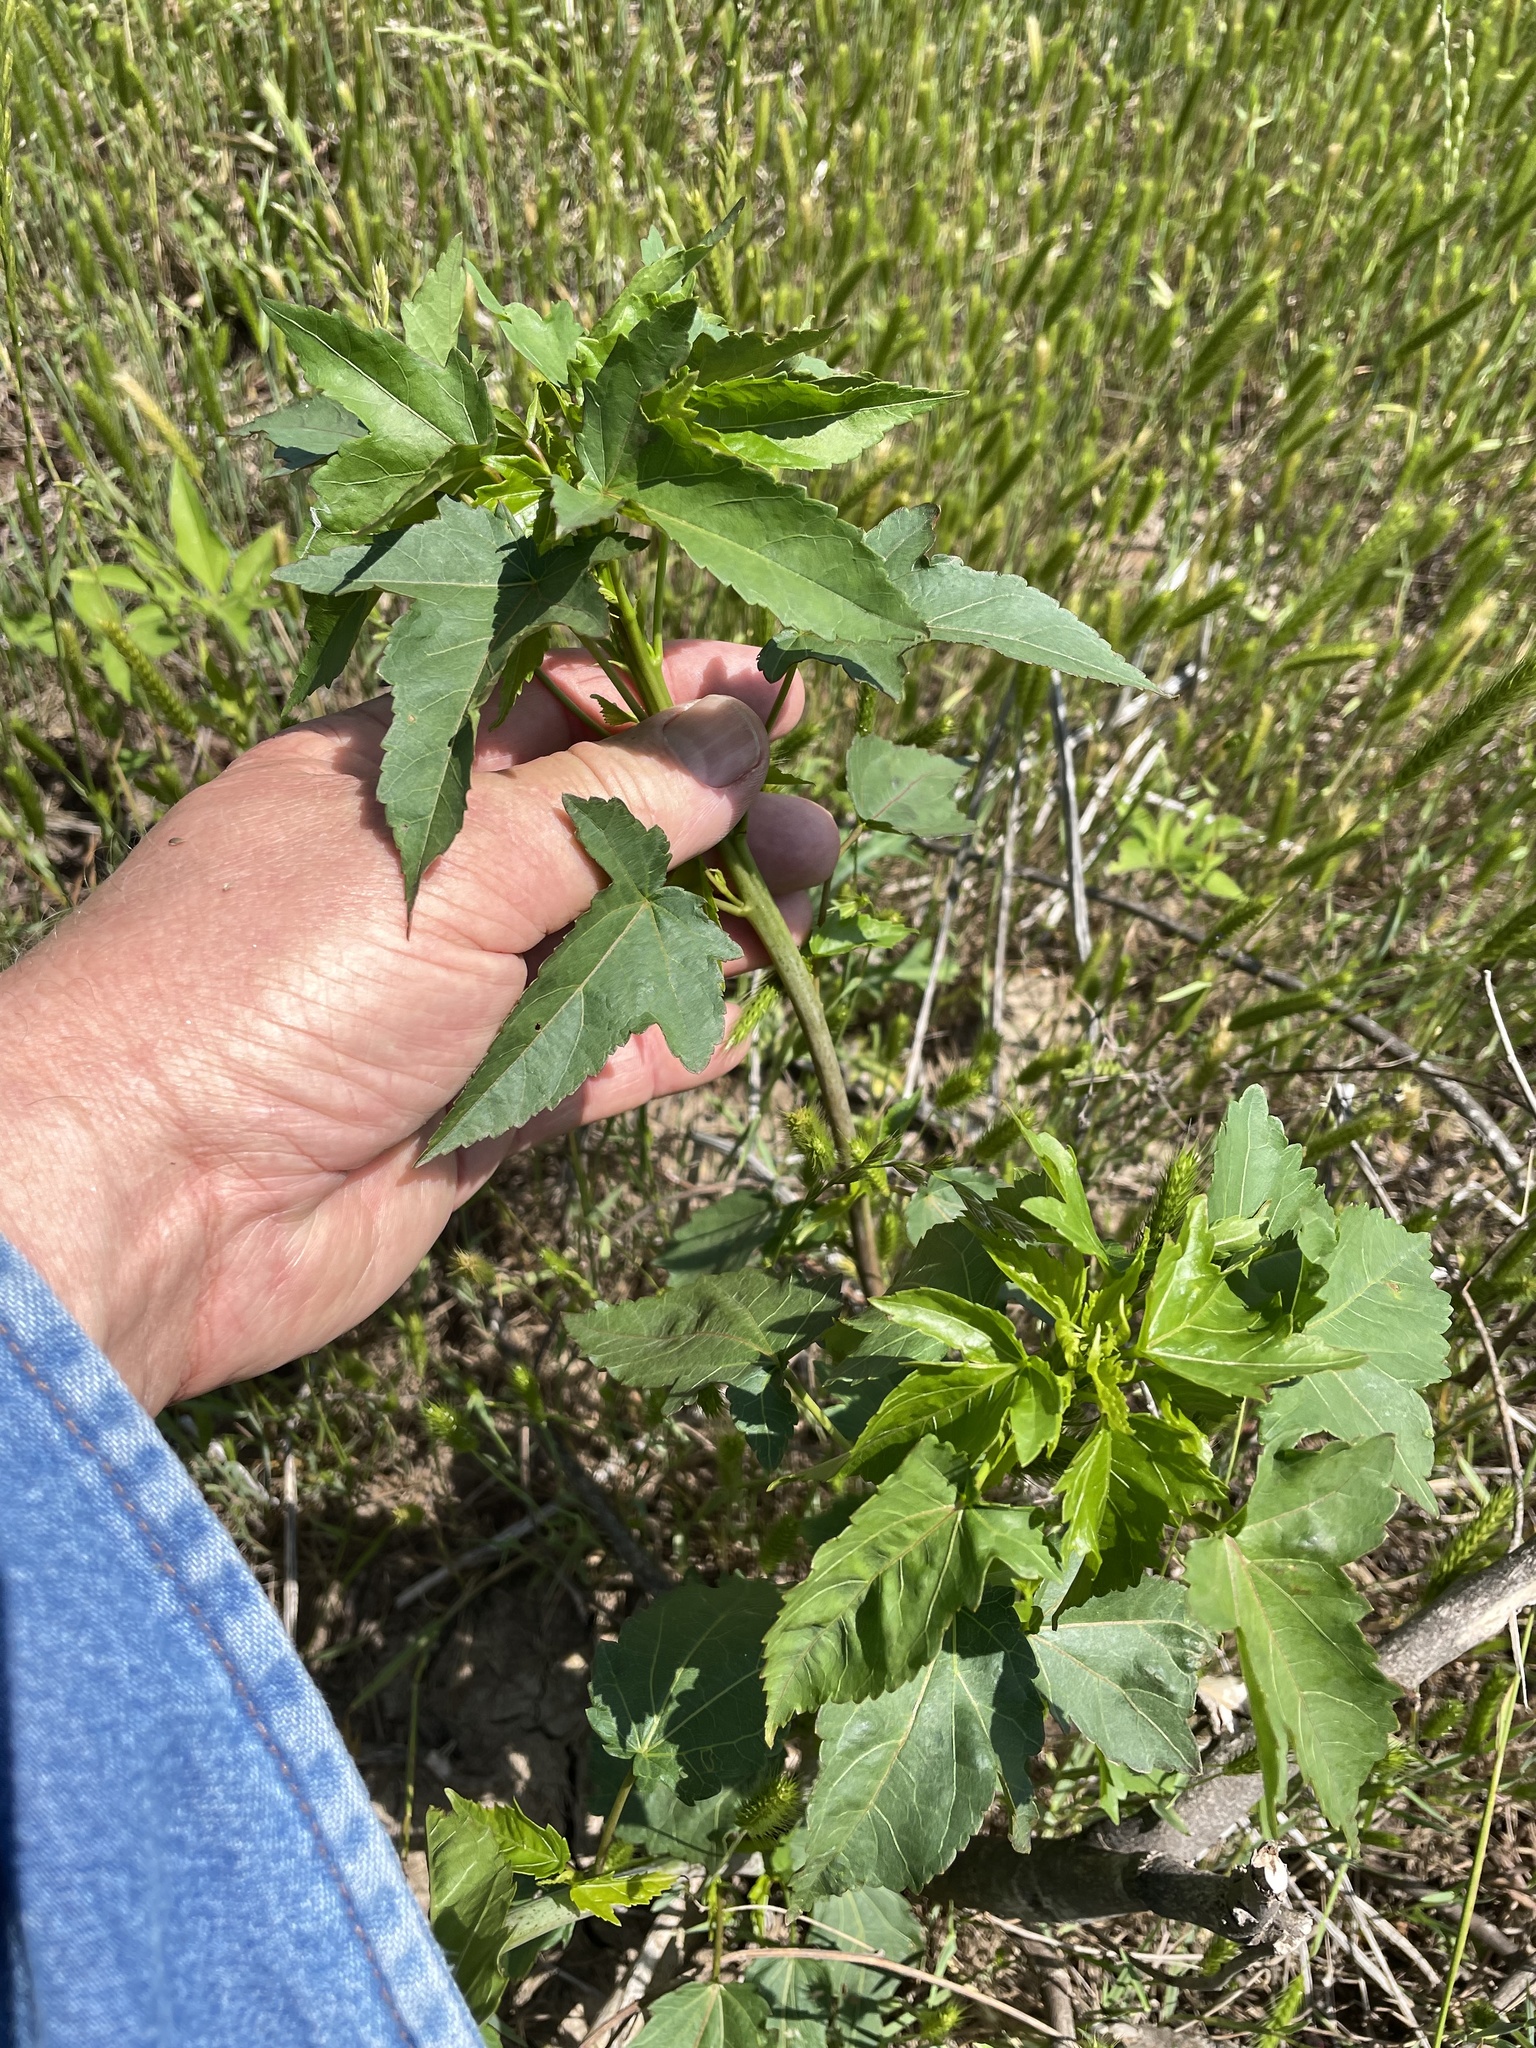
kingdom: Plantae
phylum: Tracheophyta
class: Magnoliopsida
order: Malvales
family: Malvaceae
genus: Hibiscus
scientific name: Hibiscus laevis
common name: Scarlet rose-mallow
